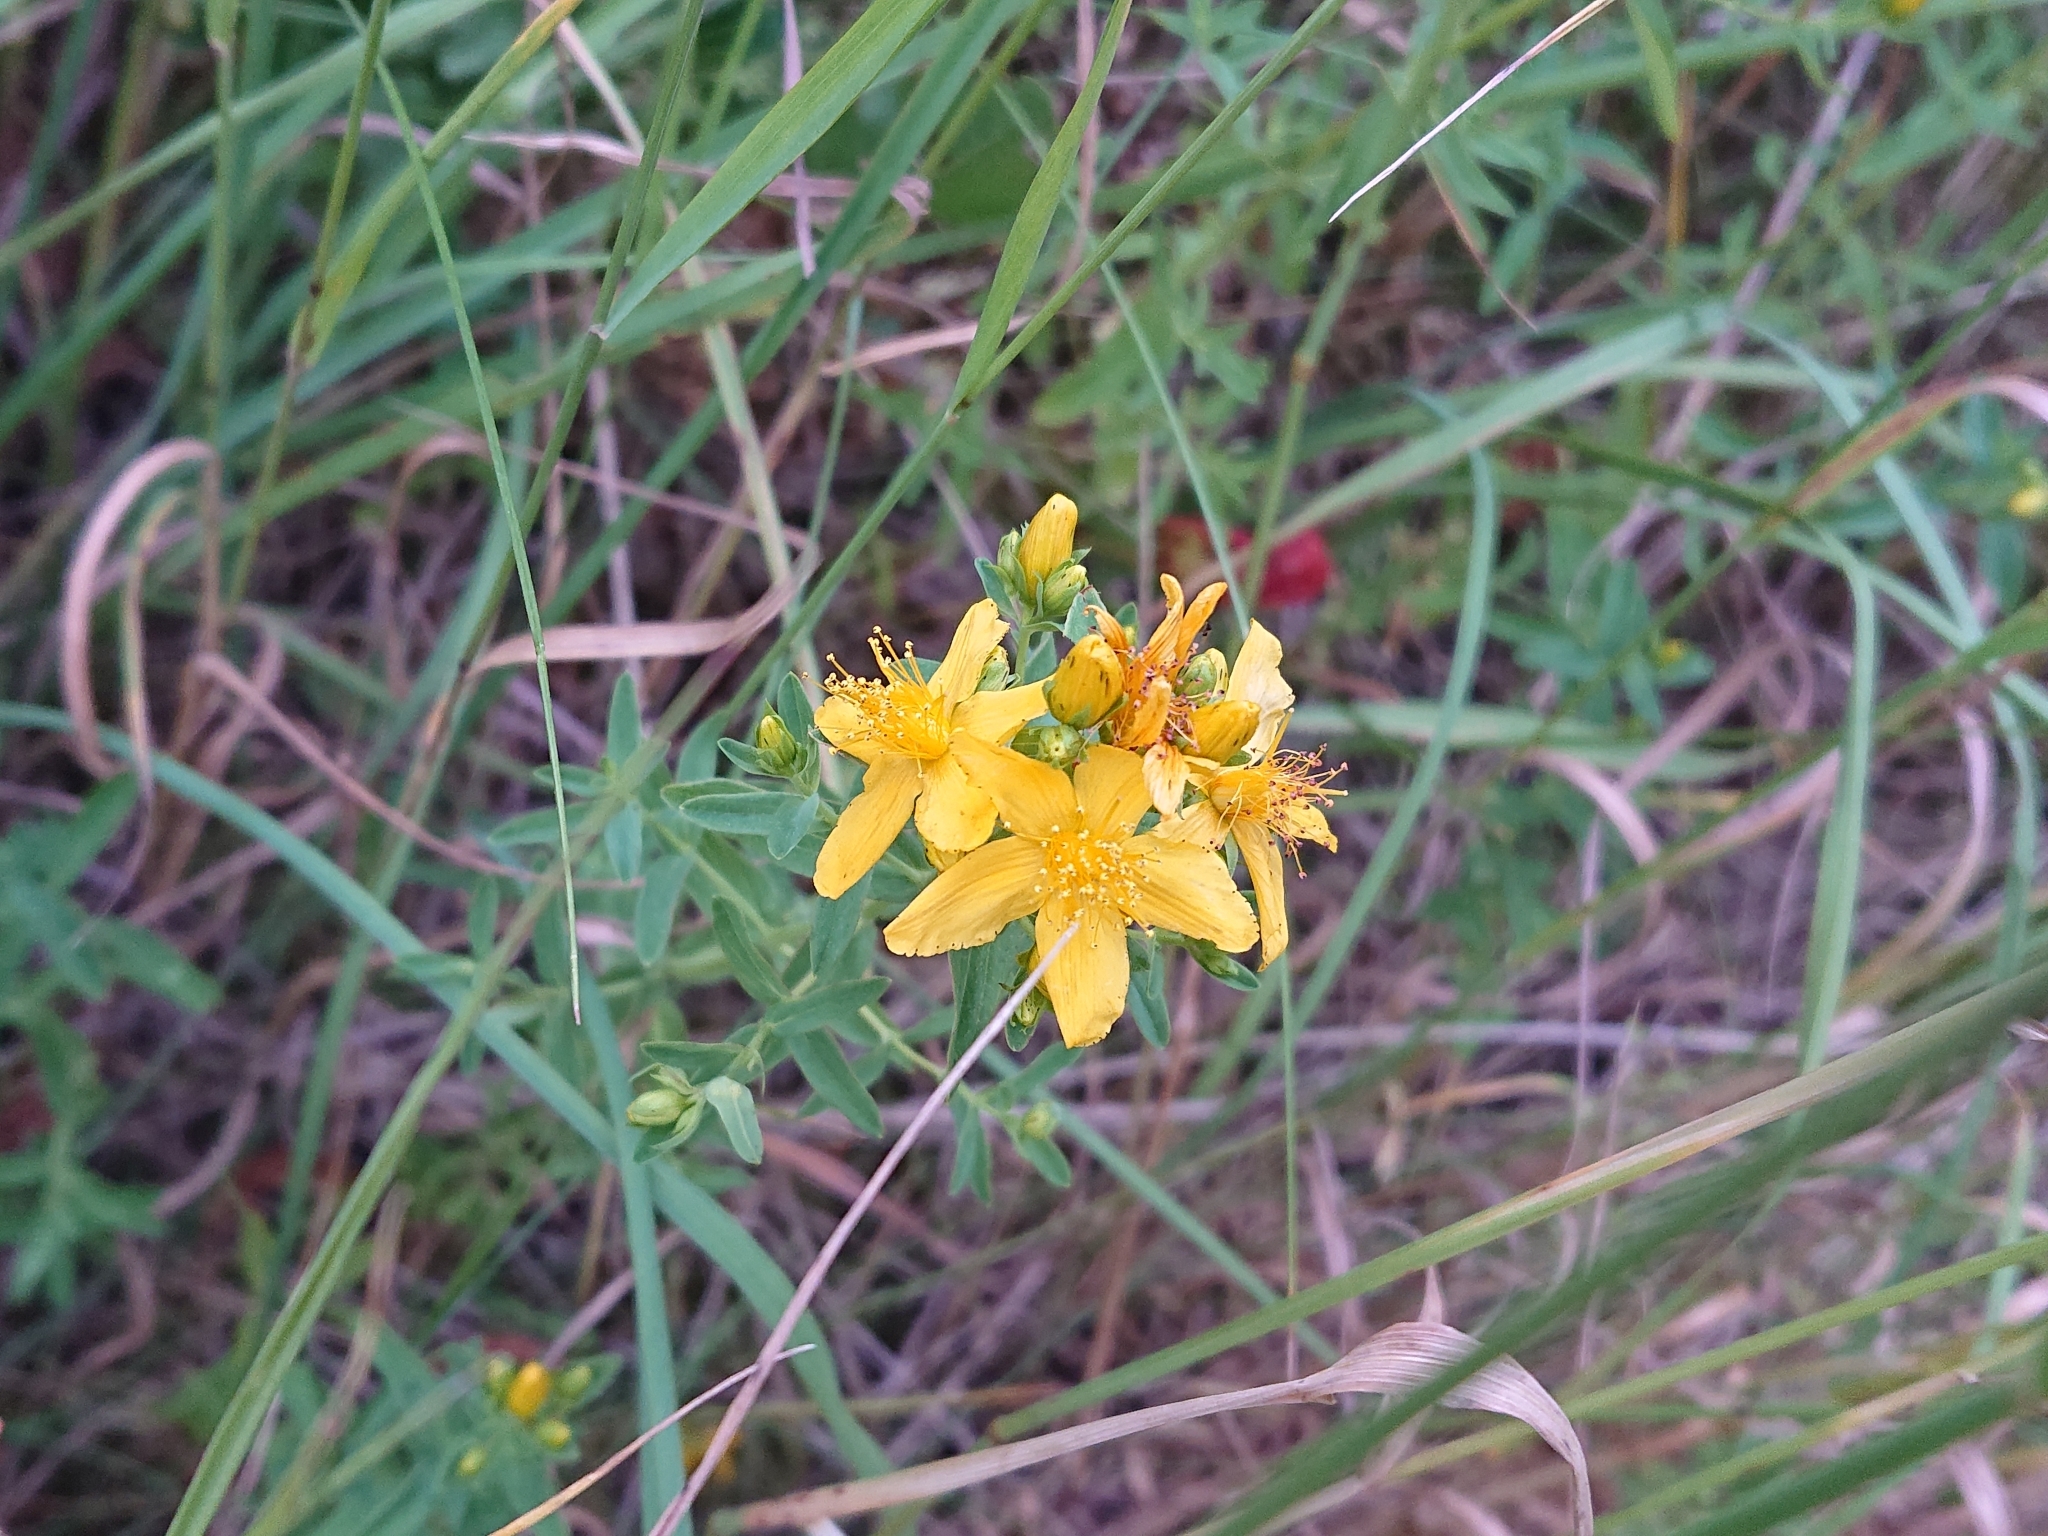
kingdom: Plantae
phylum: Tracheophyta
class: Magnoliopsida
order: Malpighiales
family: Hypericaceae
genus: Hypericum
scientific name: Hypericum perforatum
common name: Common st. johnswort
